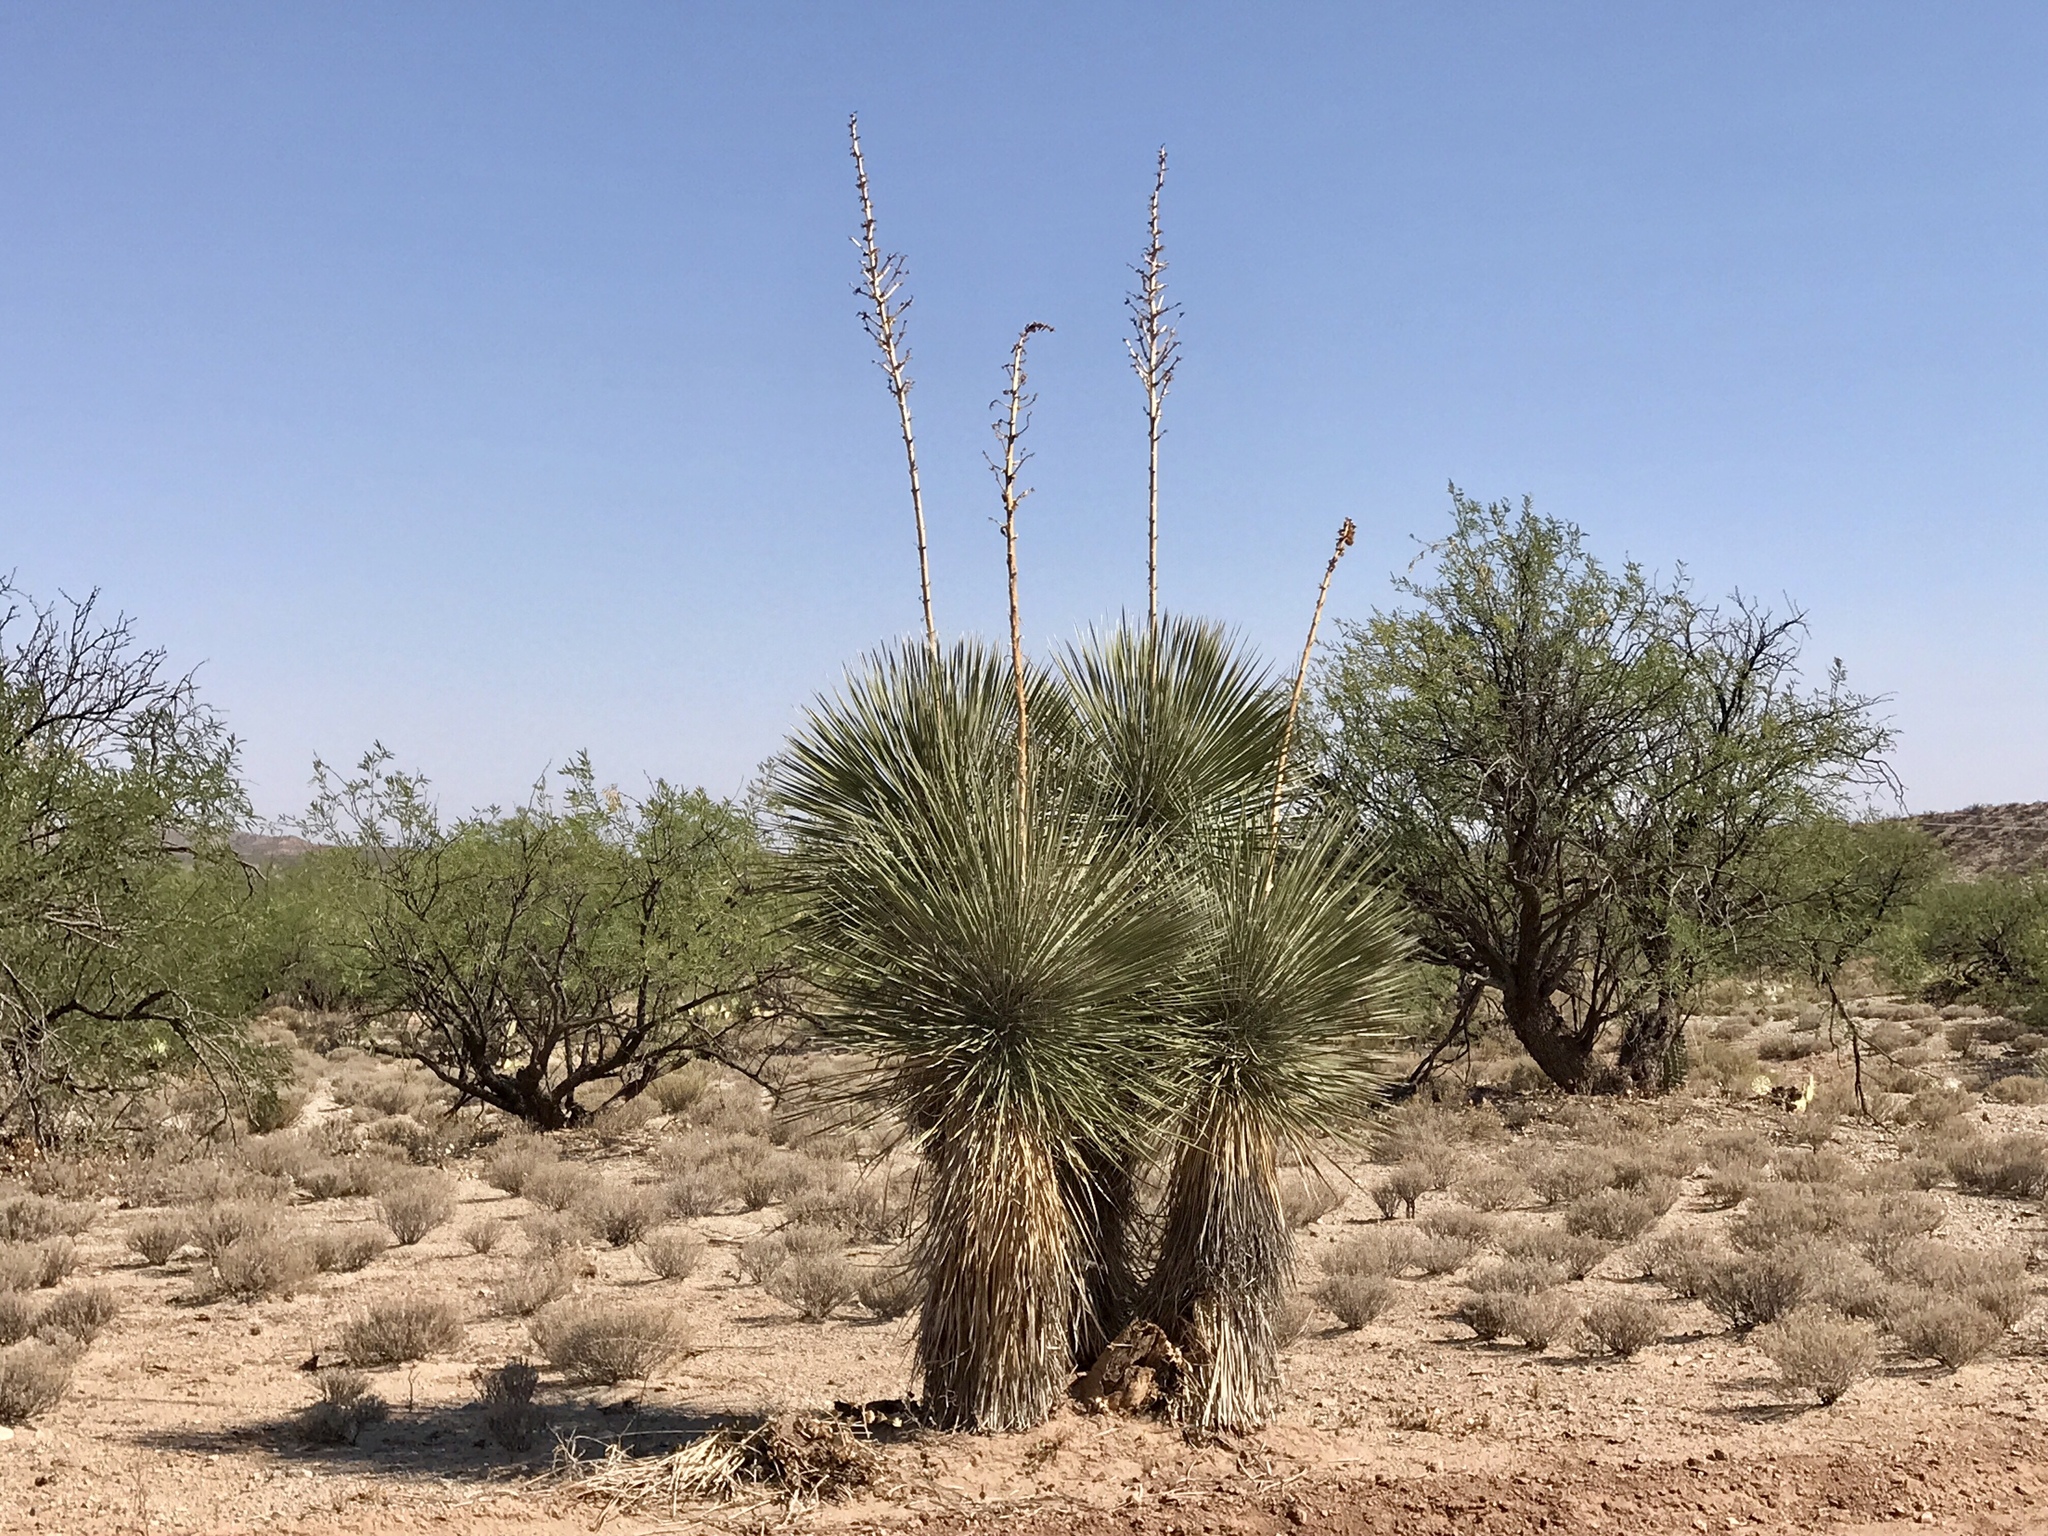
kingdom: Plantae
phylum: Tracheophyta
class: Liliopsida
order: Asparagales
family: Asparagaceae
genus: Yucca
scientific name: Yucca elata
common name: Palmella
